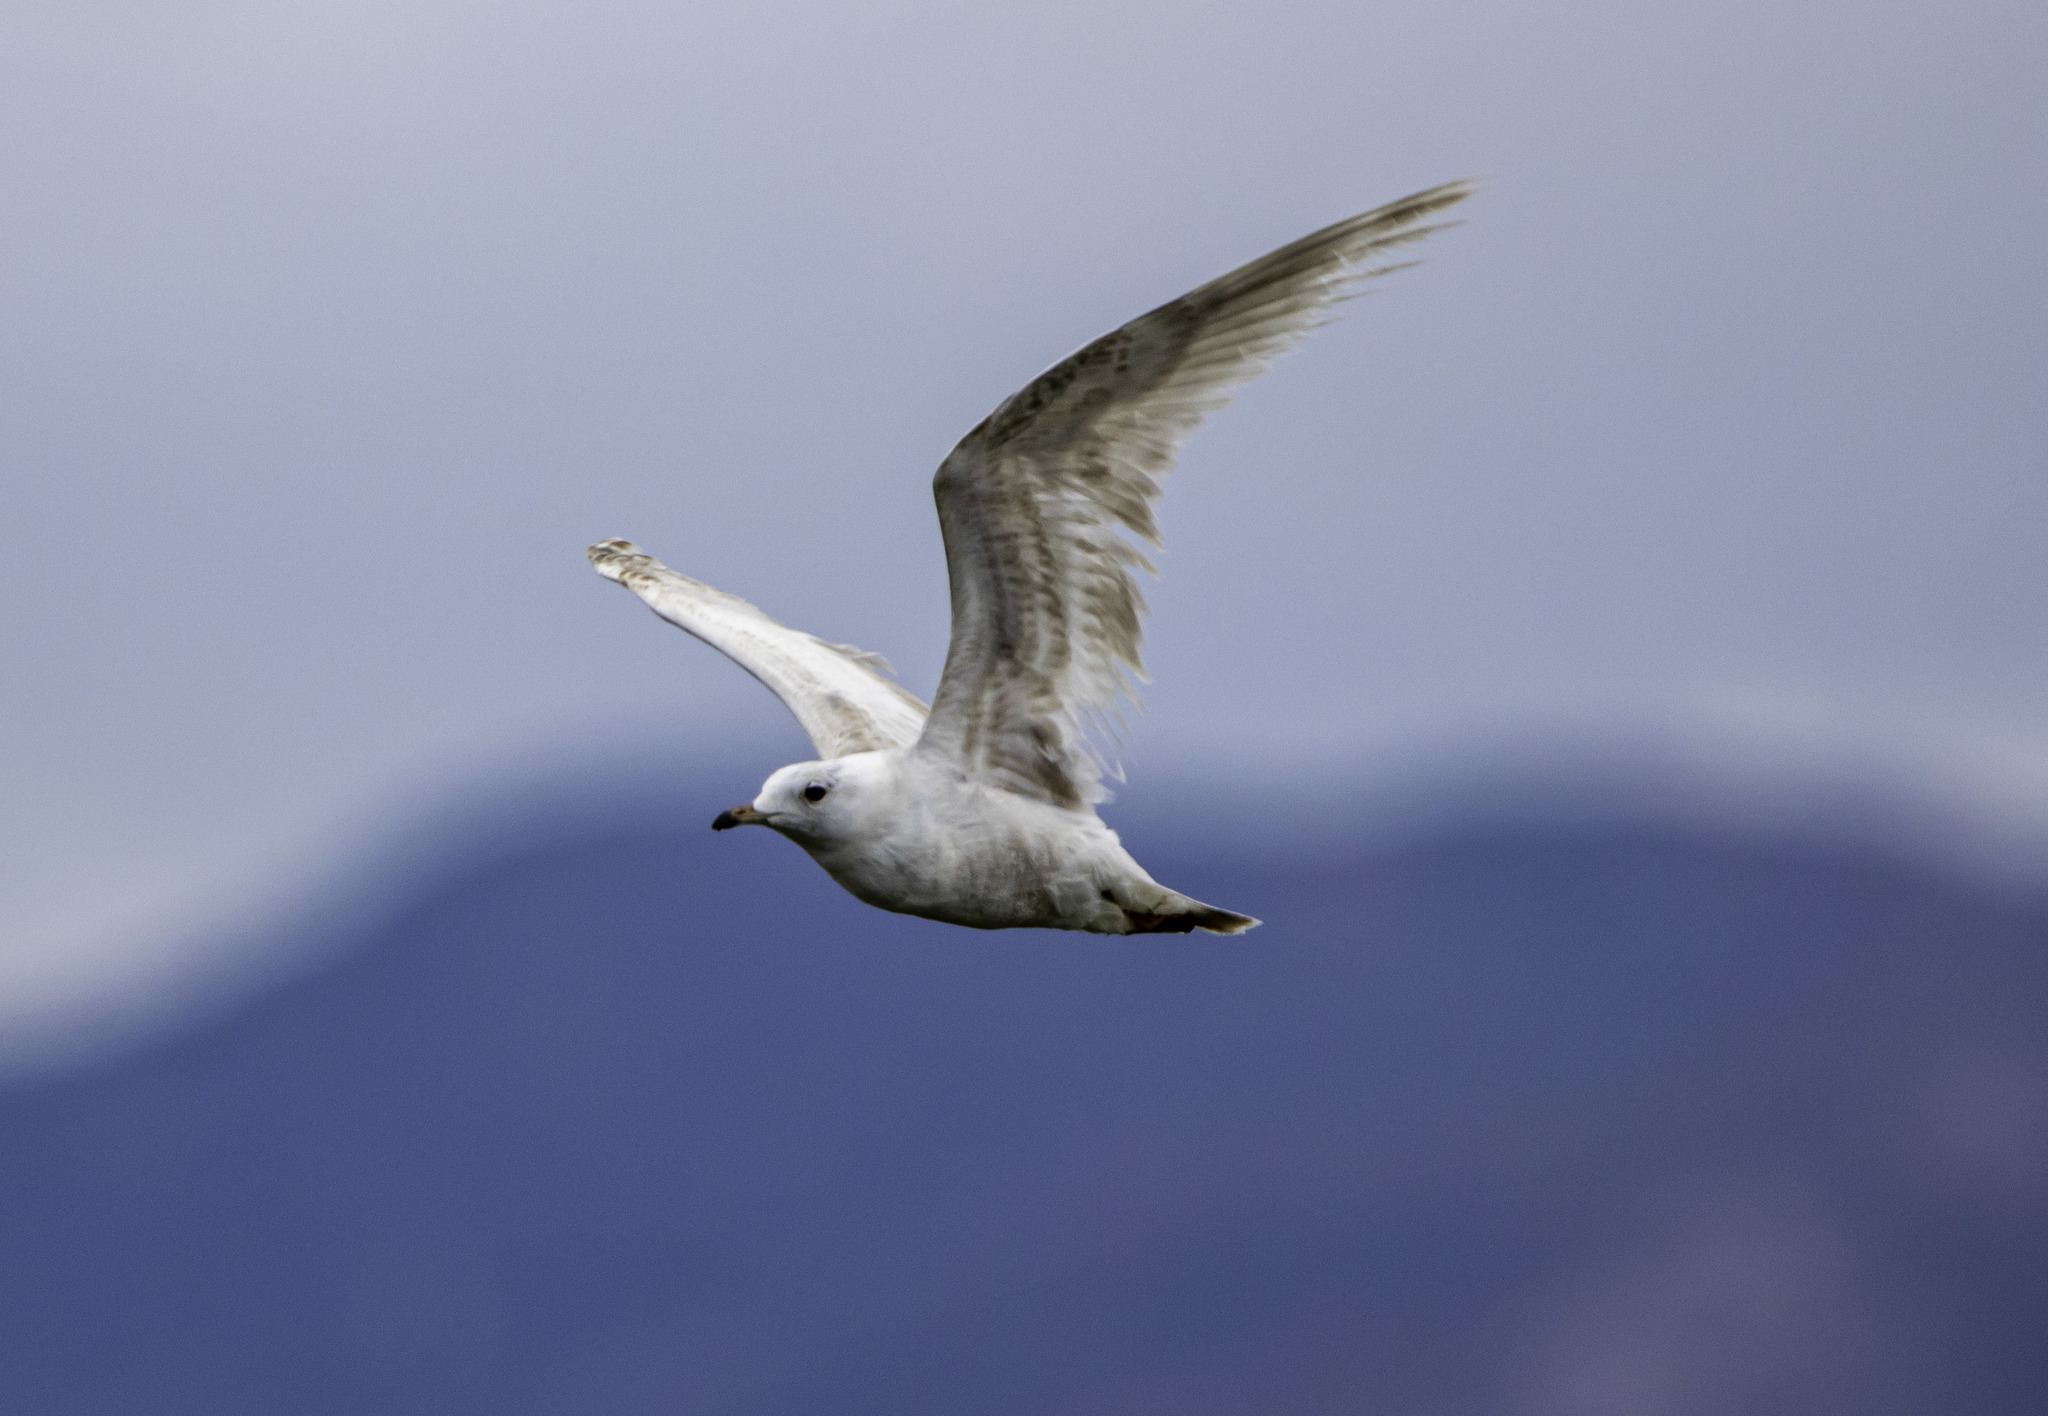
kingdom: Animalia
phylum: Chordata
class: Aves
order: Charadriiformes
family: Laridae
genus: Larus
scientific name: Larus brachyrhynchus
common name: Short-billed gull
